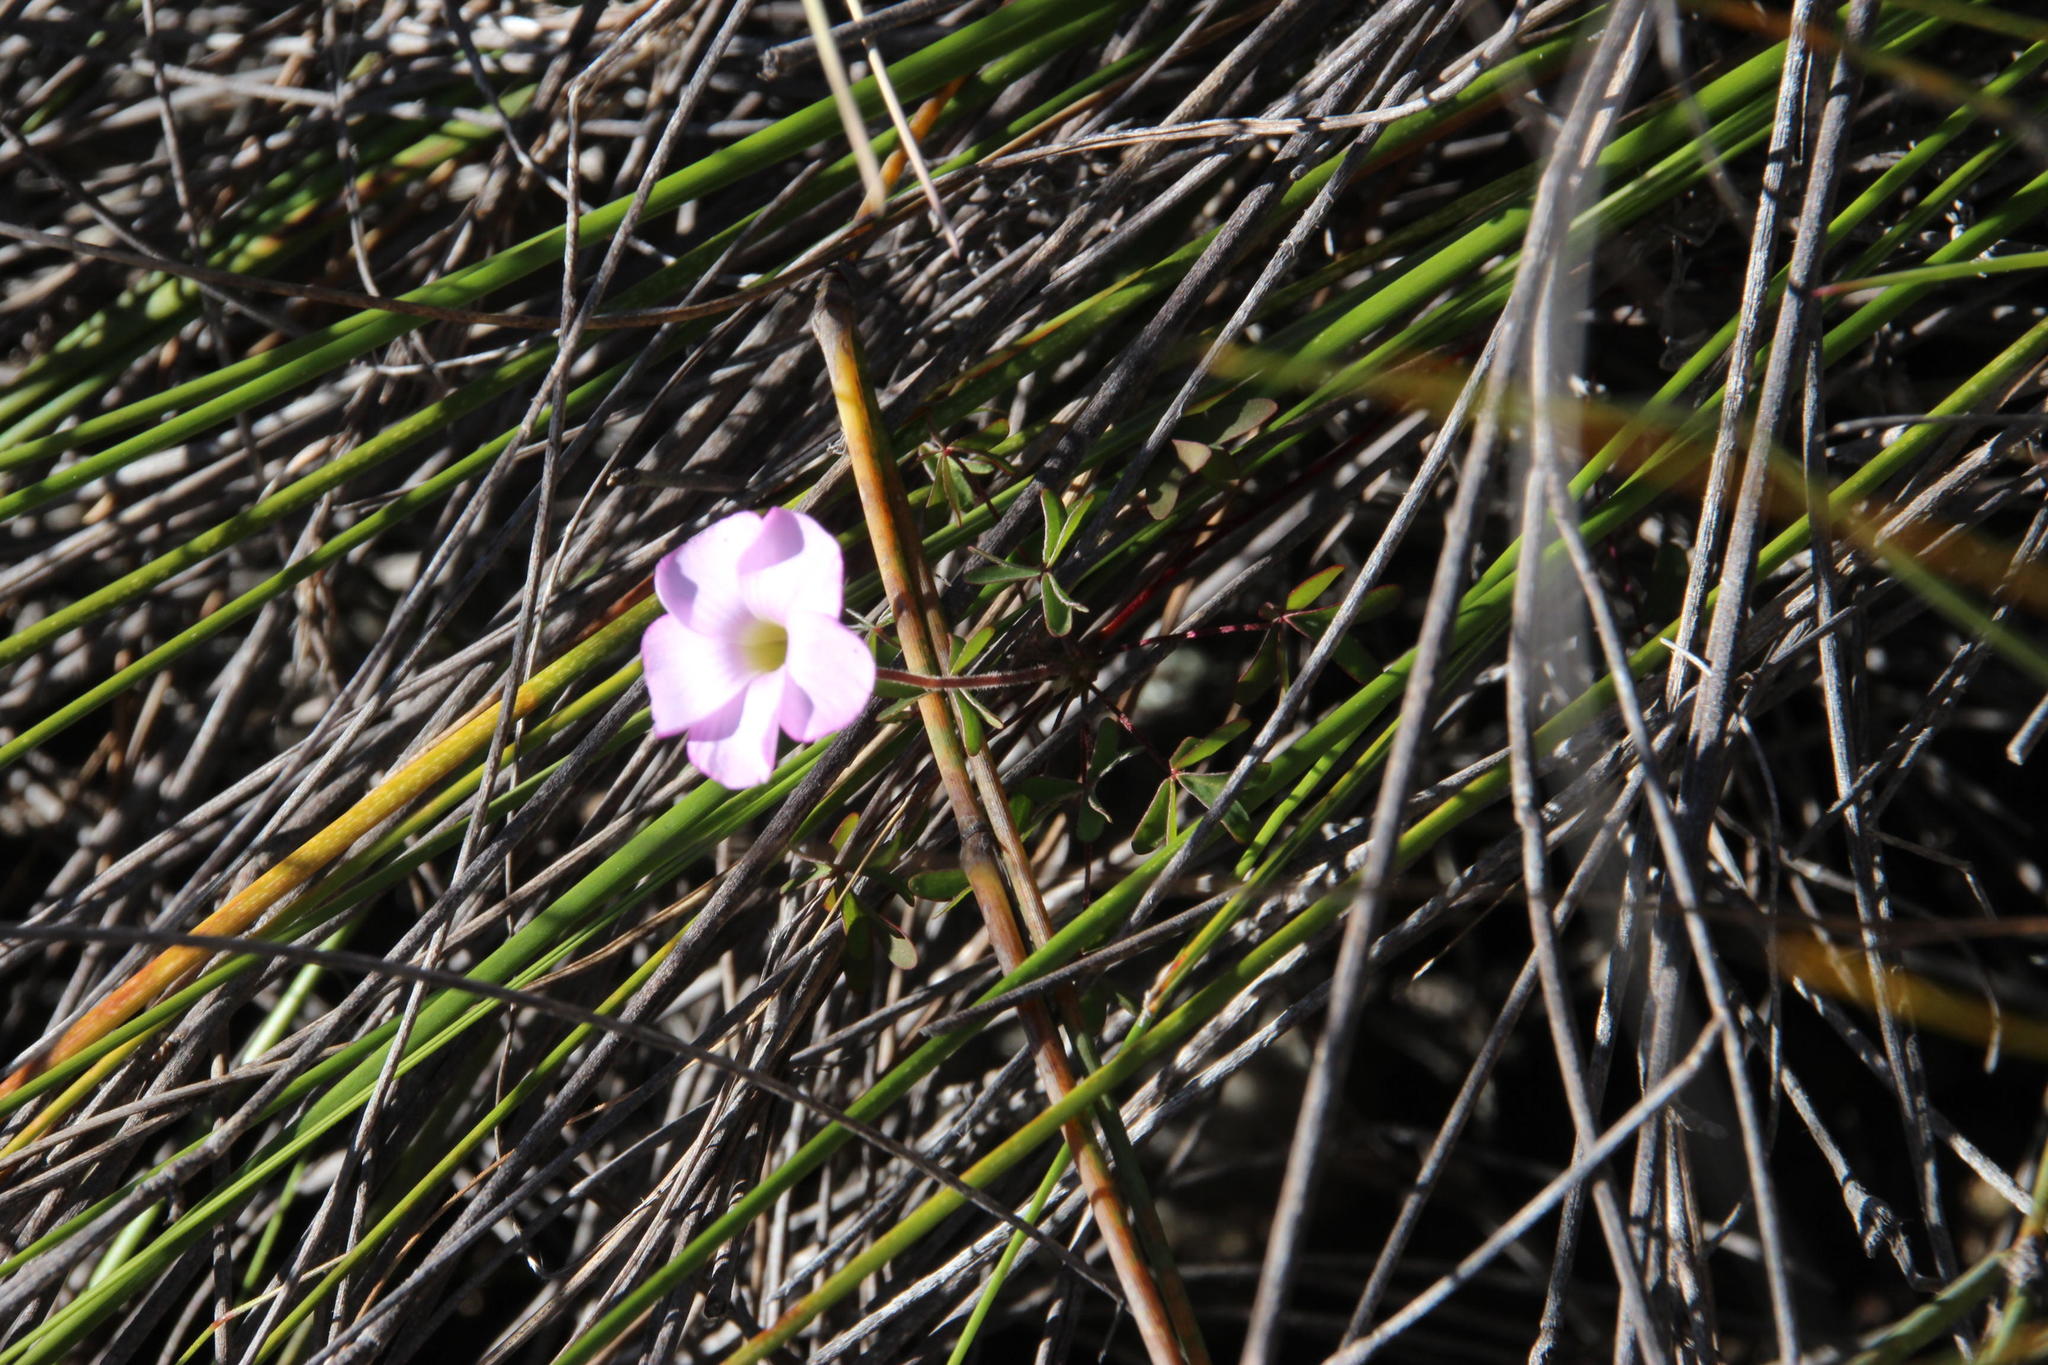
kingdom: Plantae
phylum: Tracheophyta
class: Magnoliopsida
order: Oxalidales
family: Oxalidaceae
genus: Oxalis
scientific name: Oxalis heterophylla
